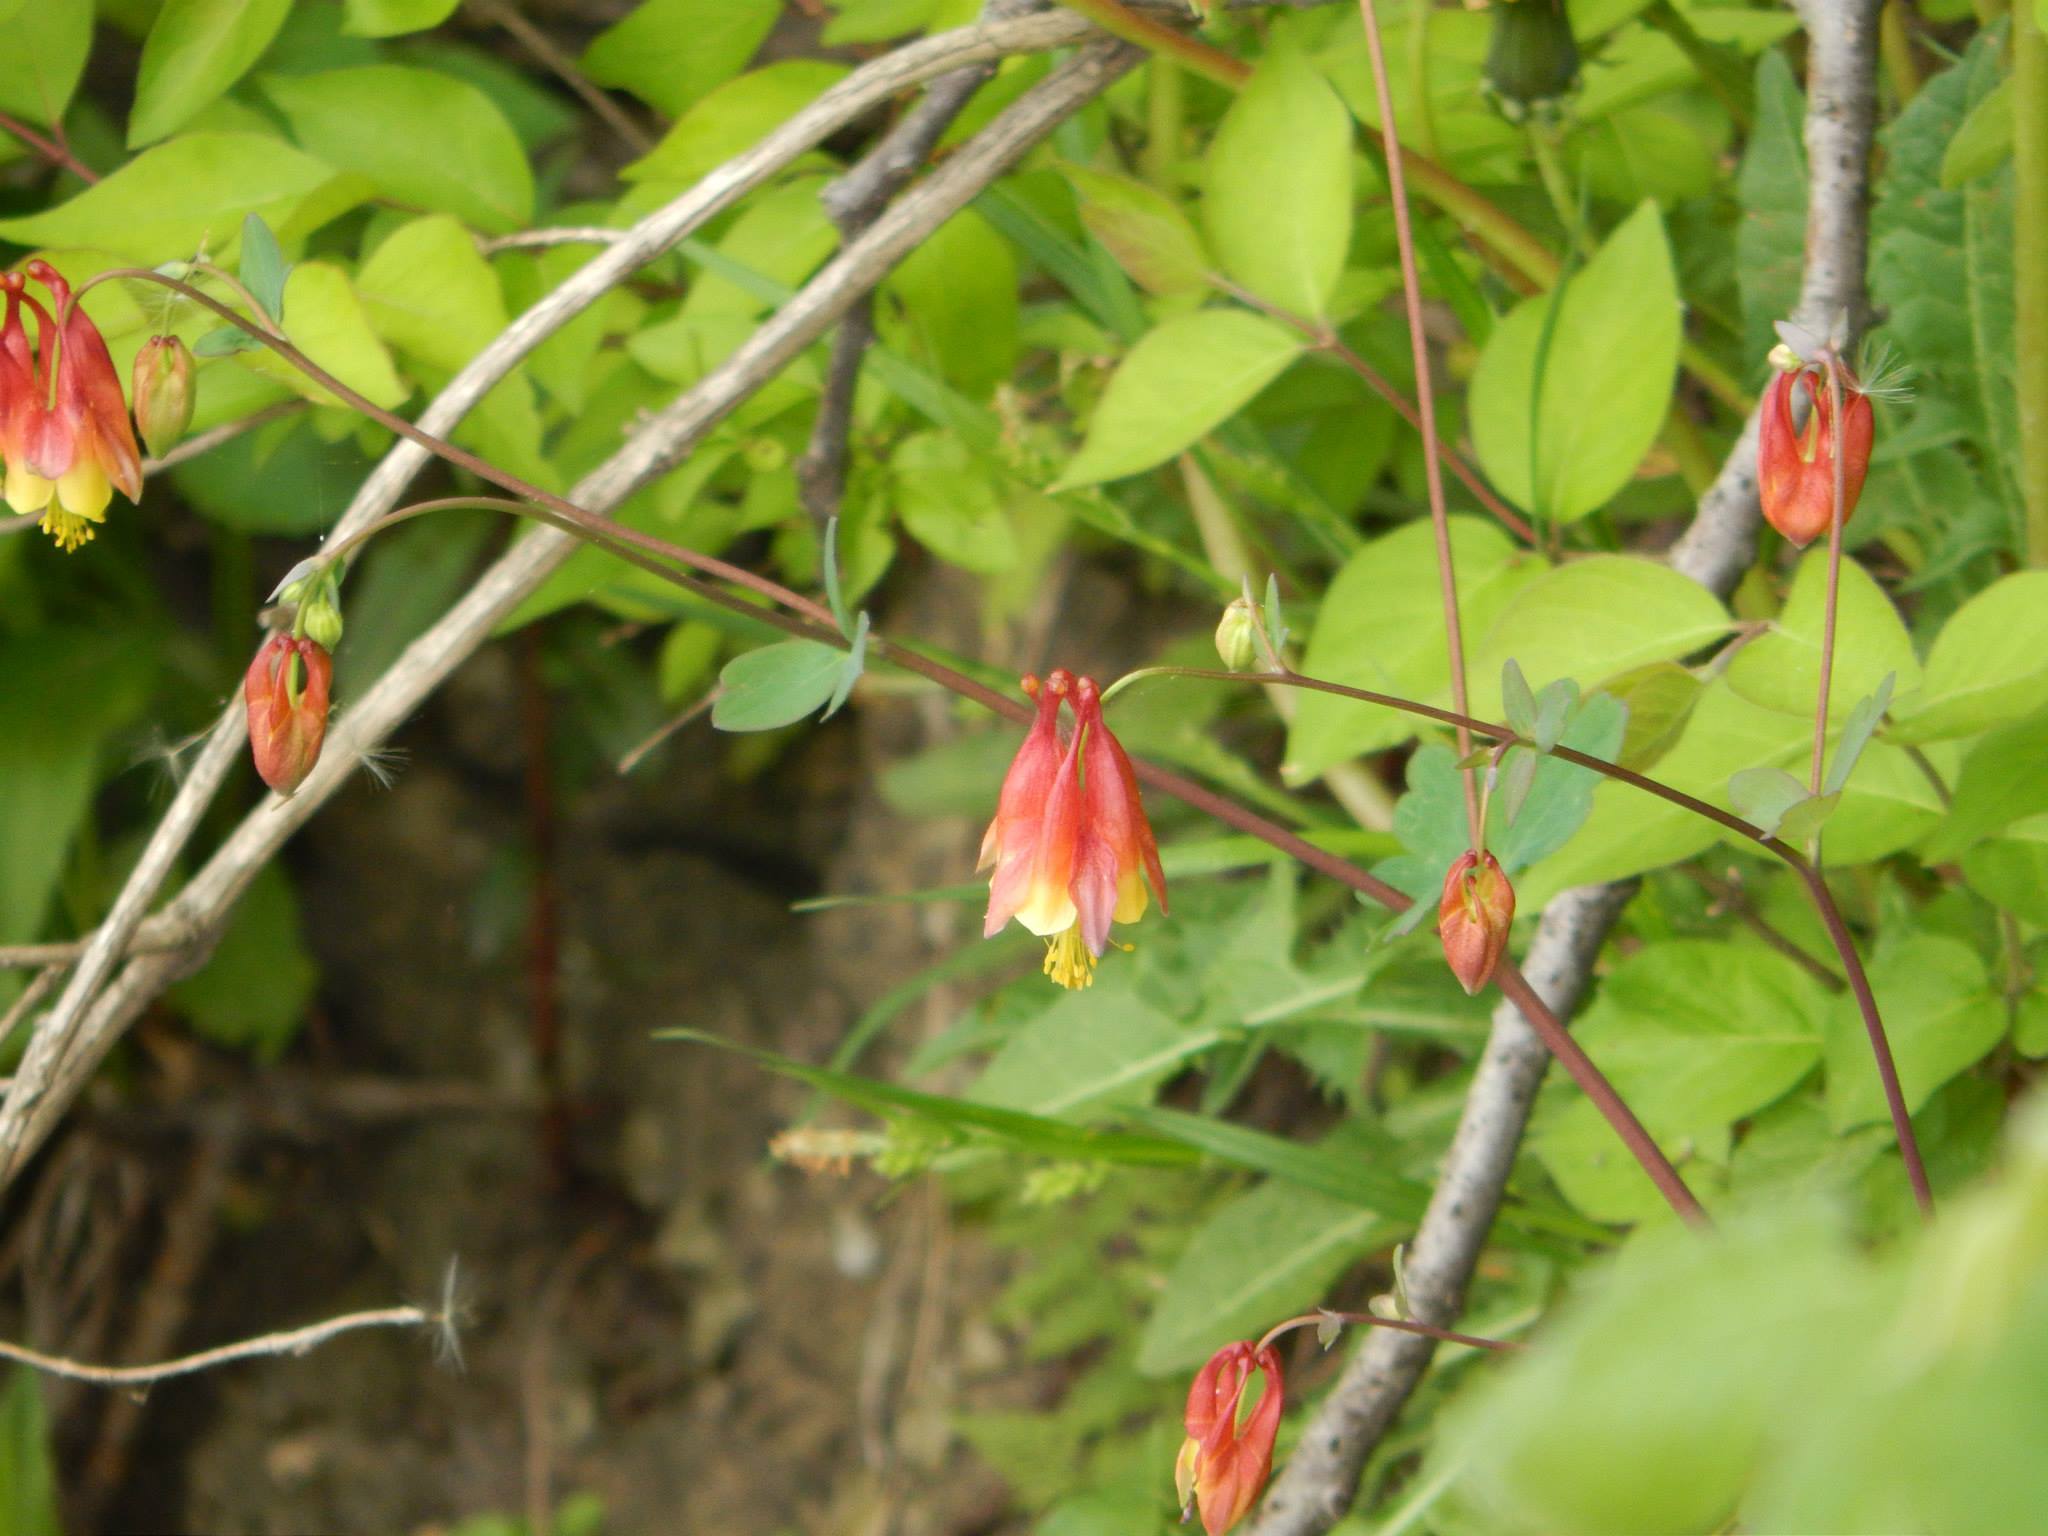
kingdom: Plantae
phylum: Tracheophyta
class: Magnoliopsida
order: Ranunculales
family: Ranunculaceae
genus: Aquilegia
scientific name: Aquilegia canadensis
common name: American columbine
